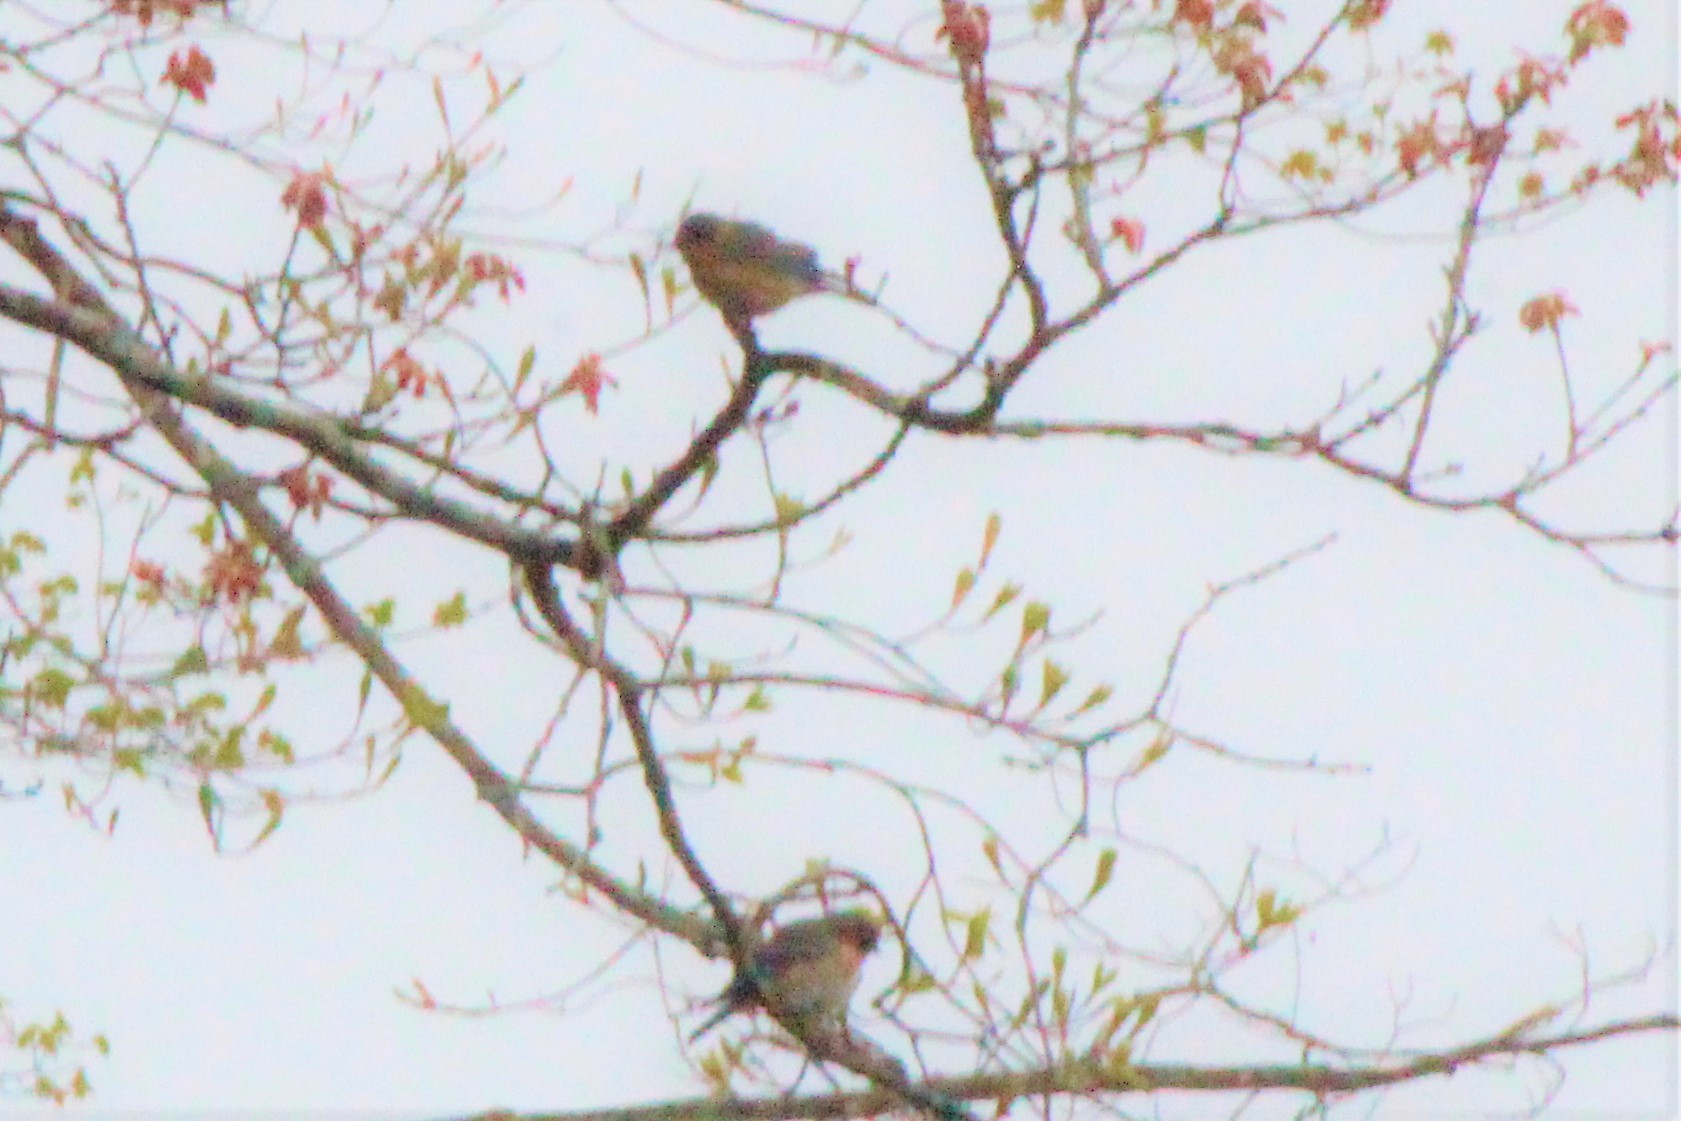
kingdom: Animalia
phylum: Chordata
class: Aves
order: Passeriformes
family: Turdidae
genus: Sialia
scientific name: Sialia sialis
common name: Eastern bluebird
